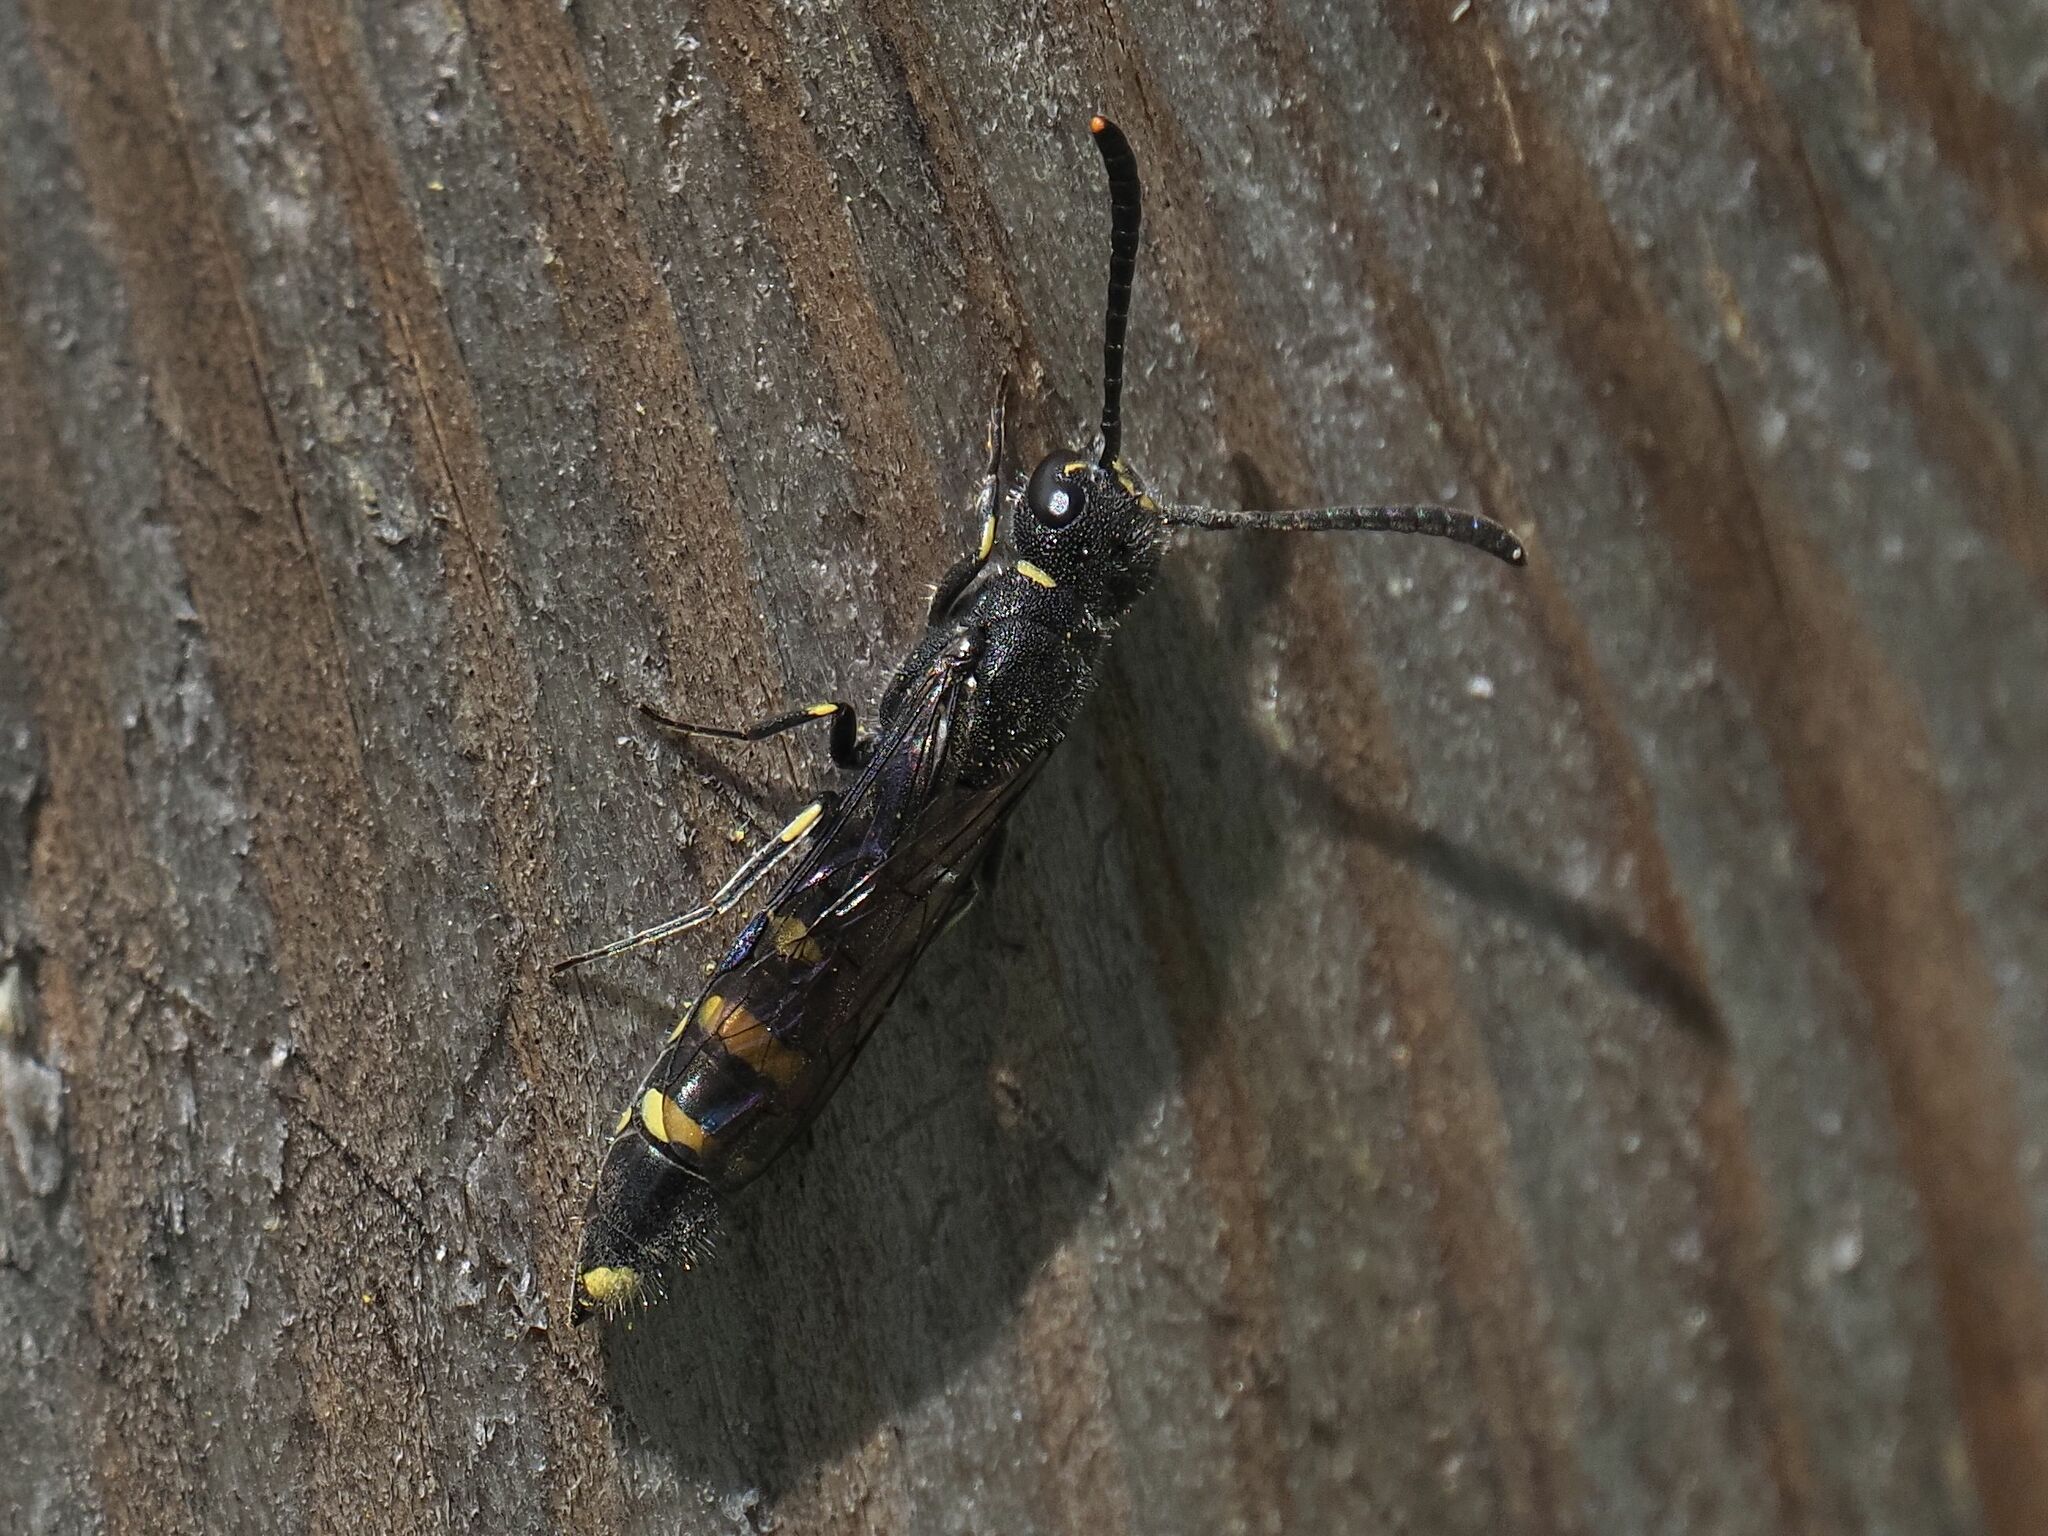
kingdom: Animalia
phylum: Arthropoda
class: Insecta
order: Hymenoptera
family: Sapygidae
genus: Monosapyga
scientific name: Monosapyga clavicornis
